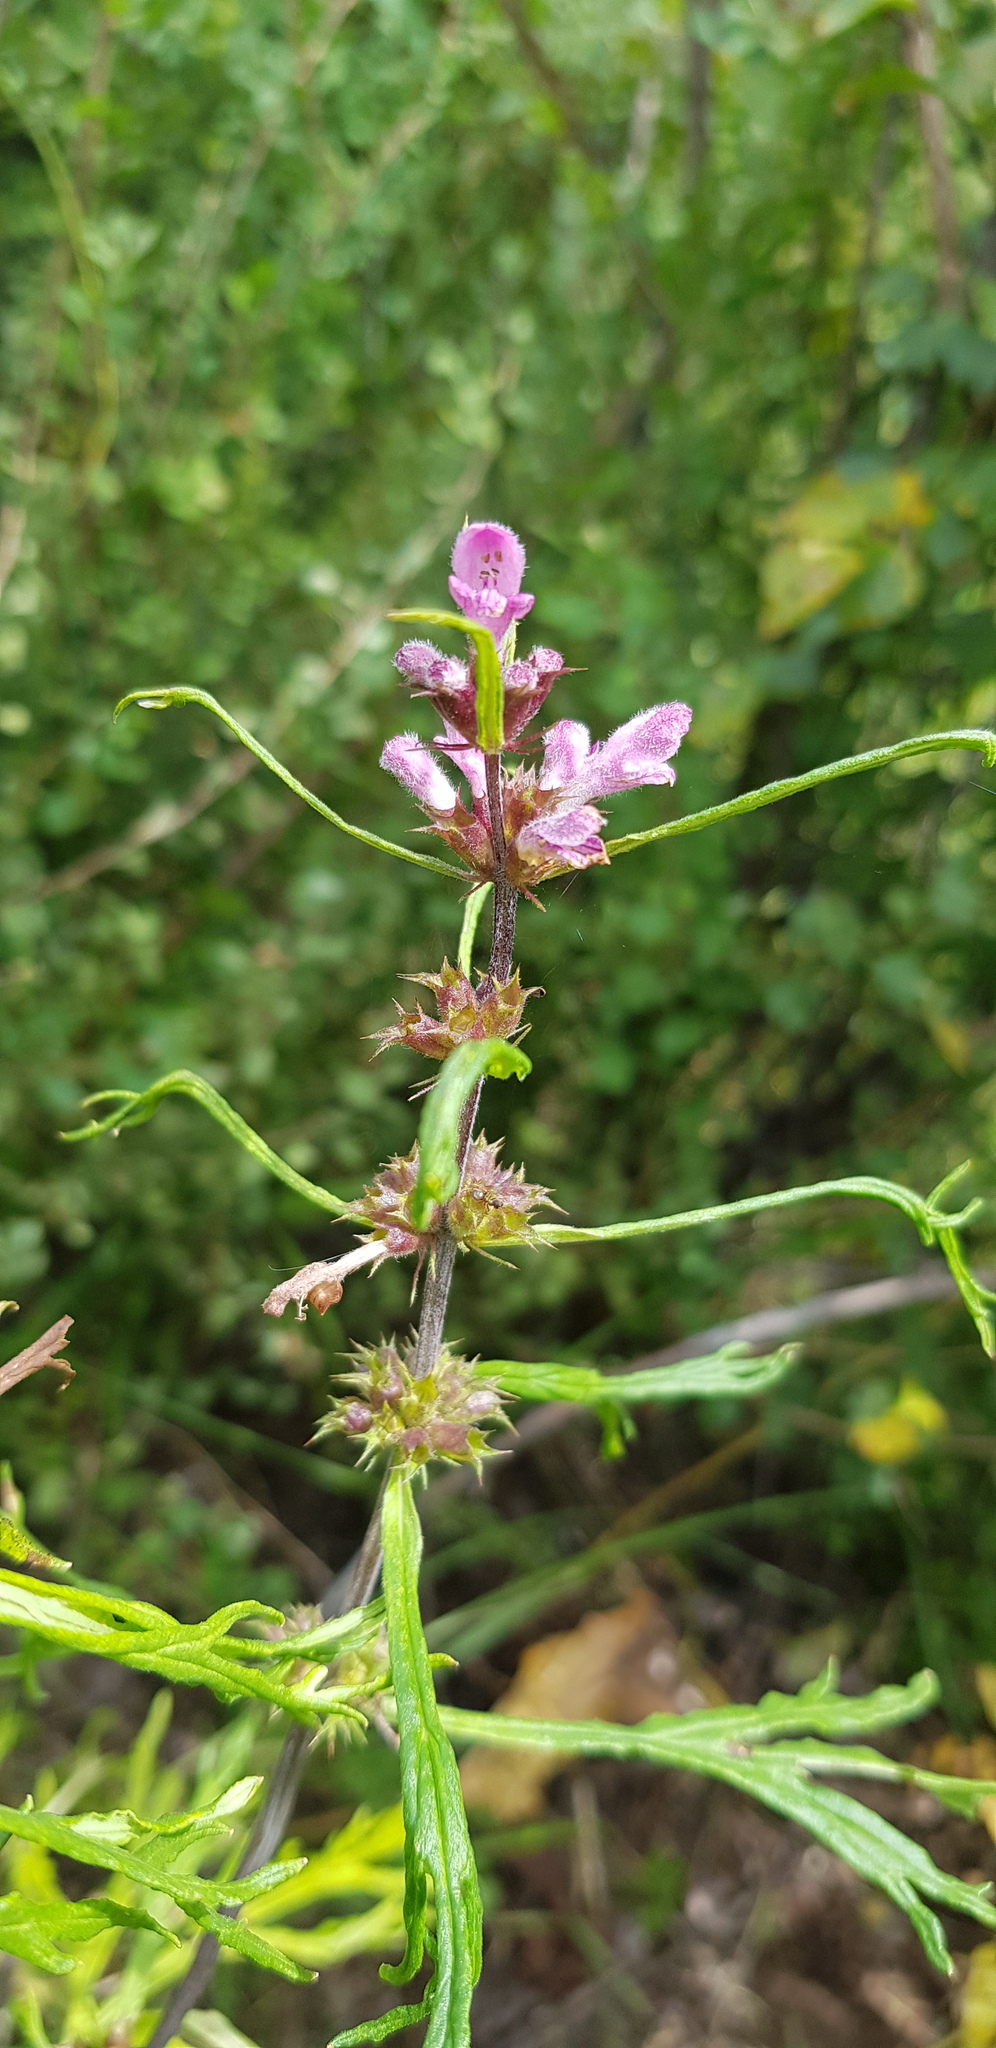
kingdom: Plantae
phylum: Tracheophyta
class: Magnoliopsida
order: Lamiales
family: Lamiaceae
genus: Leonurus
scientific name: Leonurus sibiricus
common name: Honeyweed
